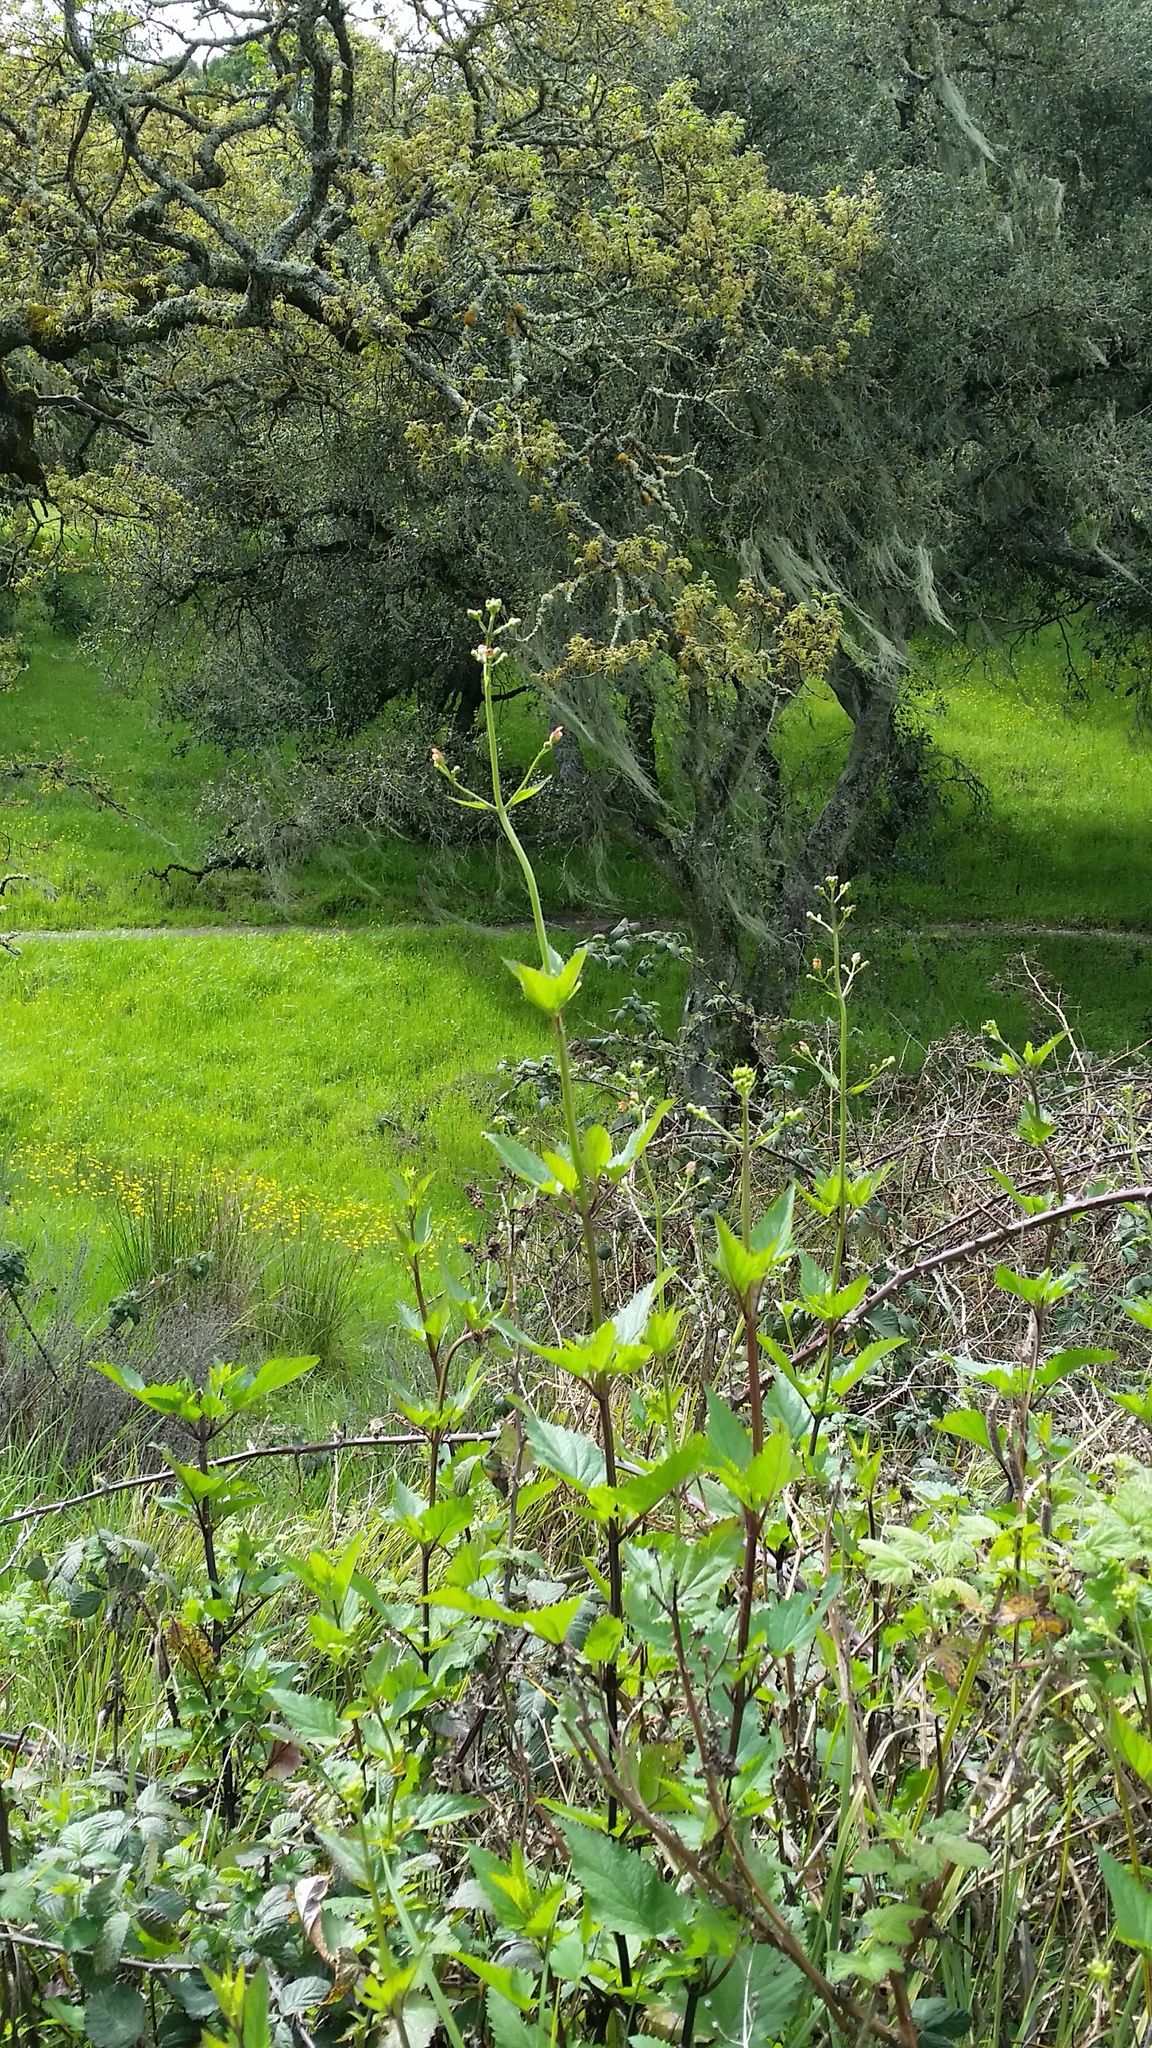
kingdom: Plantae
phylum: Tracheophyta
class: Magnoliopsida
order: Lamiales
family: Scrophulariaceae
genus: Scrophularia
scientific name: Scrophularia californica
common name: California figwort
